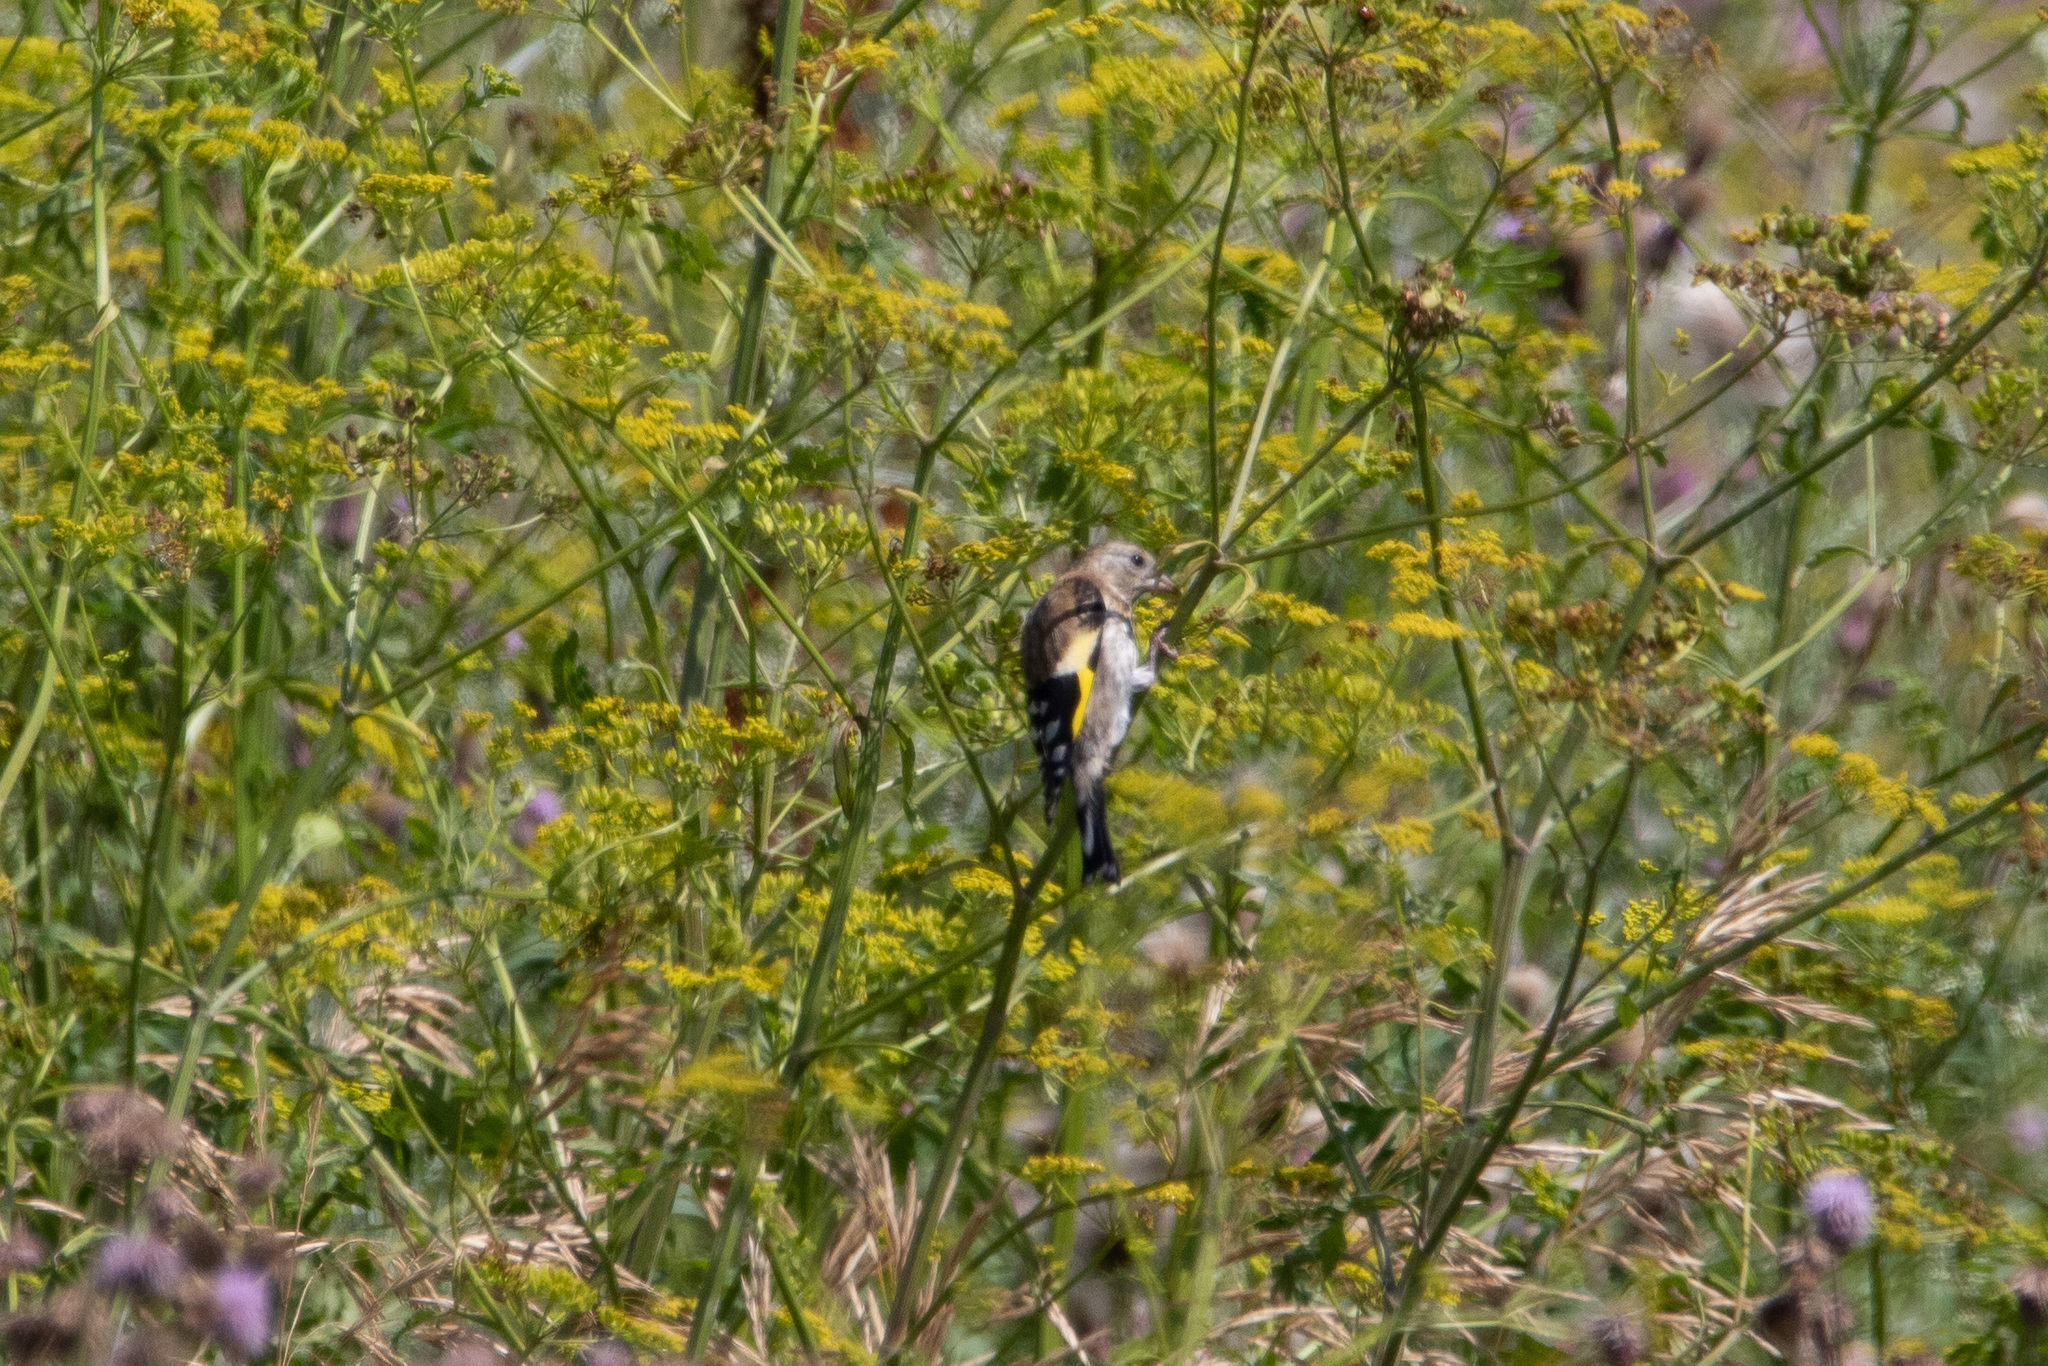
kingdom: Animalia
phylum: Chordata
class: Aves
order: Passeriformes
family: Fringillidae
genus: Carduelis
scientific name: Carduelis carduelis
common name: European goldfinch
